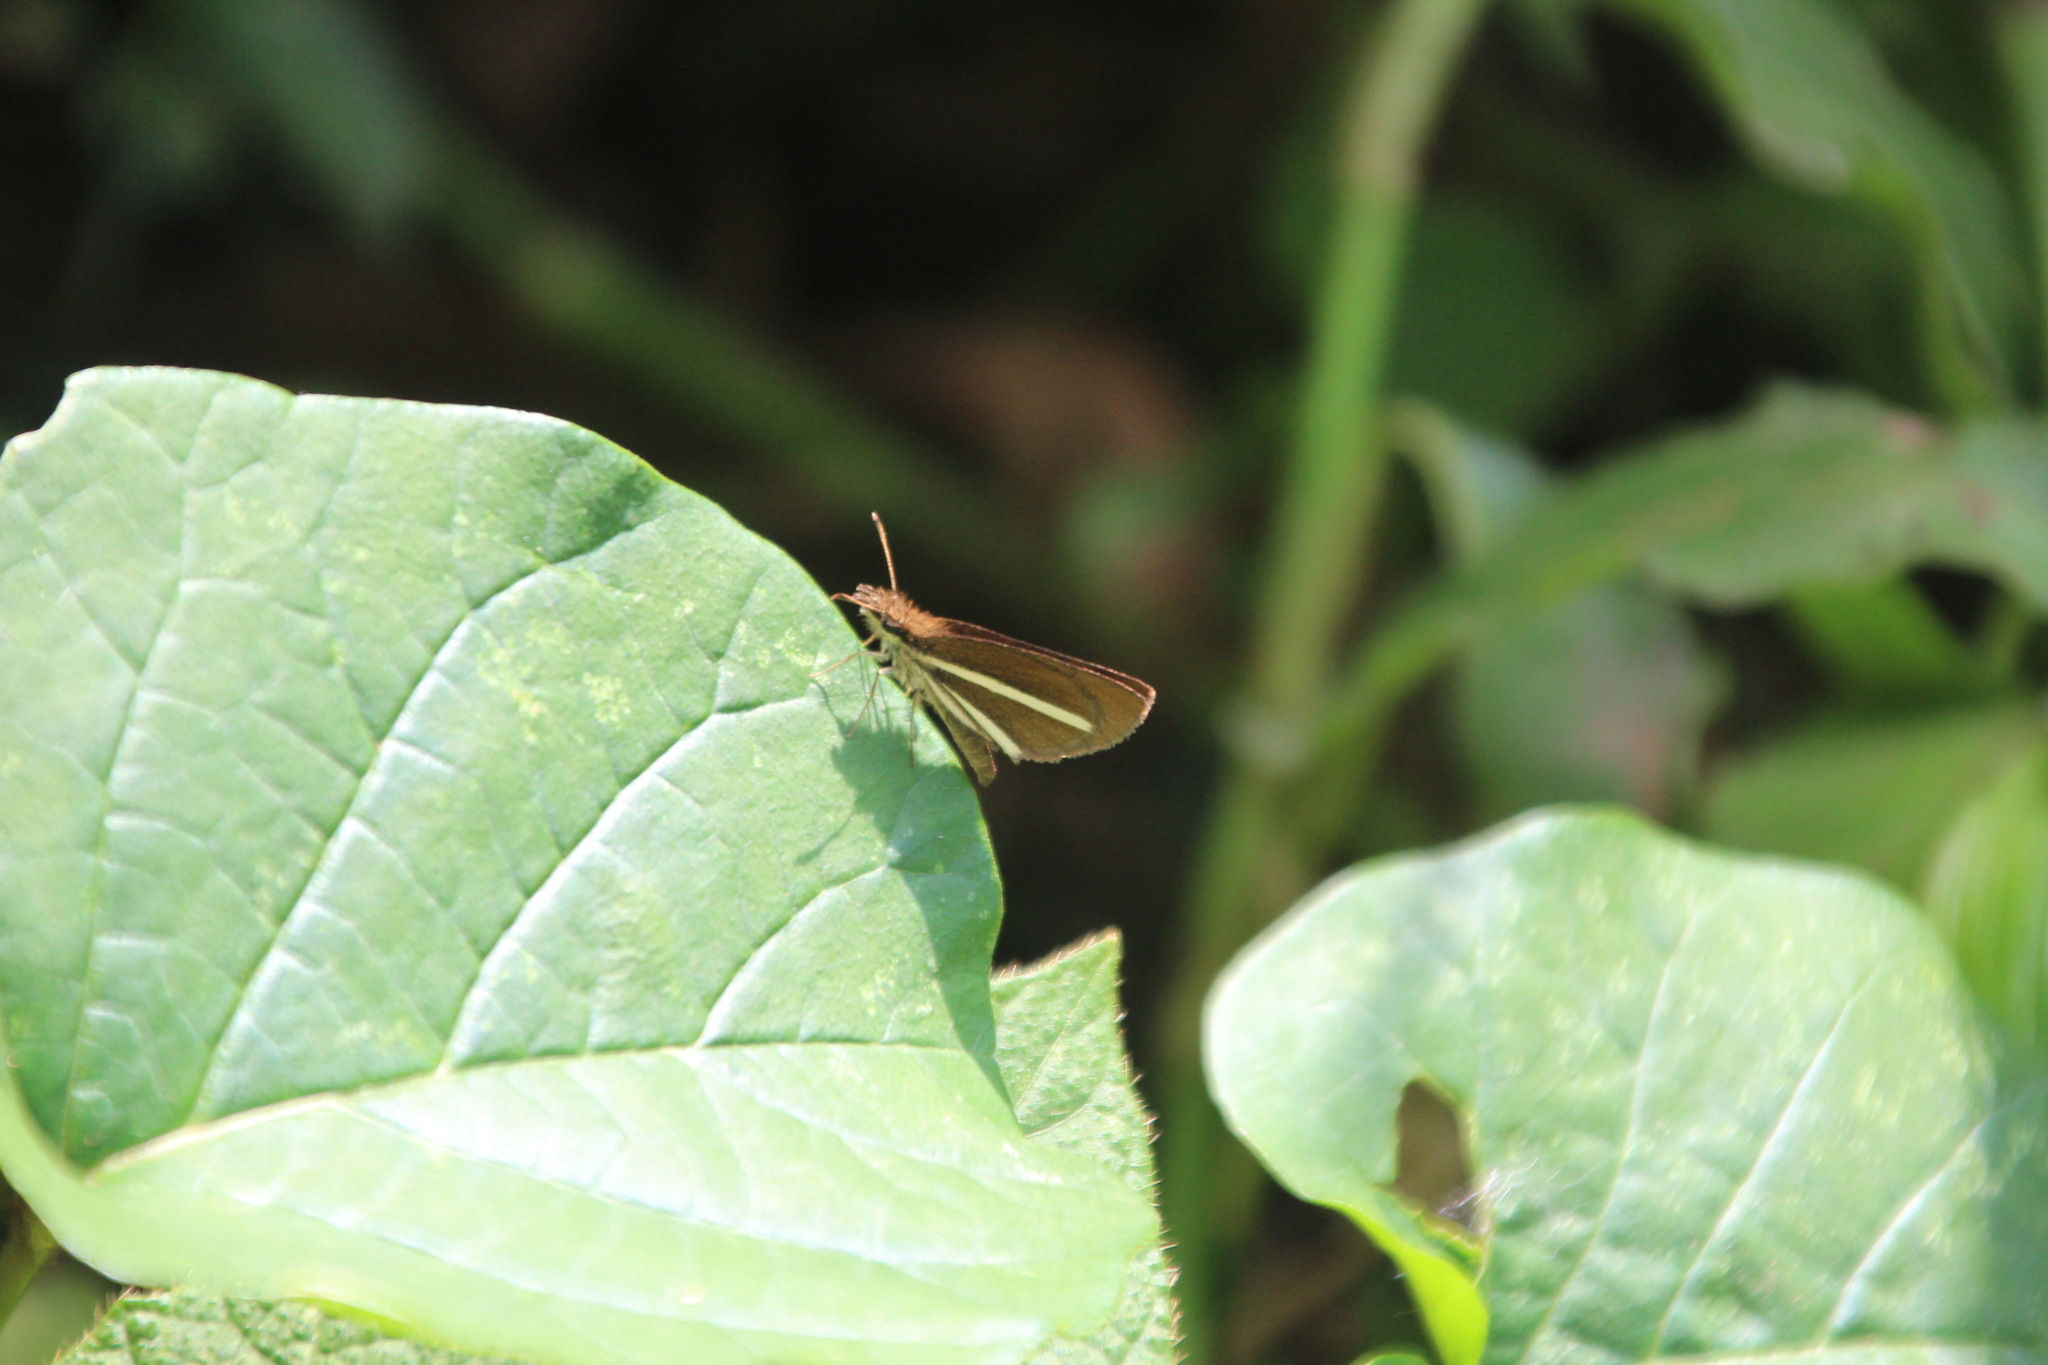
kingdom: Animalia
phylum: Arthropoda
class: Insecta
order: Lepidoptera
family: Hesperiidae
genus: Lepella
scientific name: Lepella lepeletier
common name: Lepeletier’s sylph
